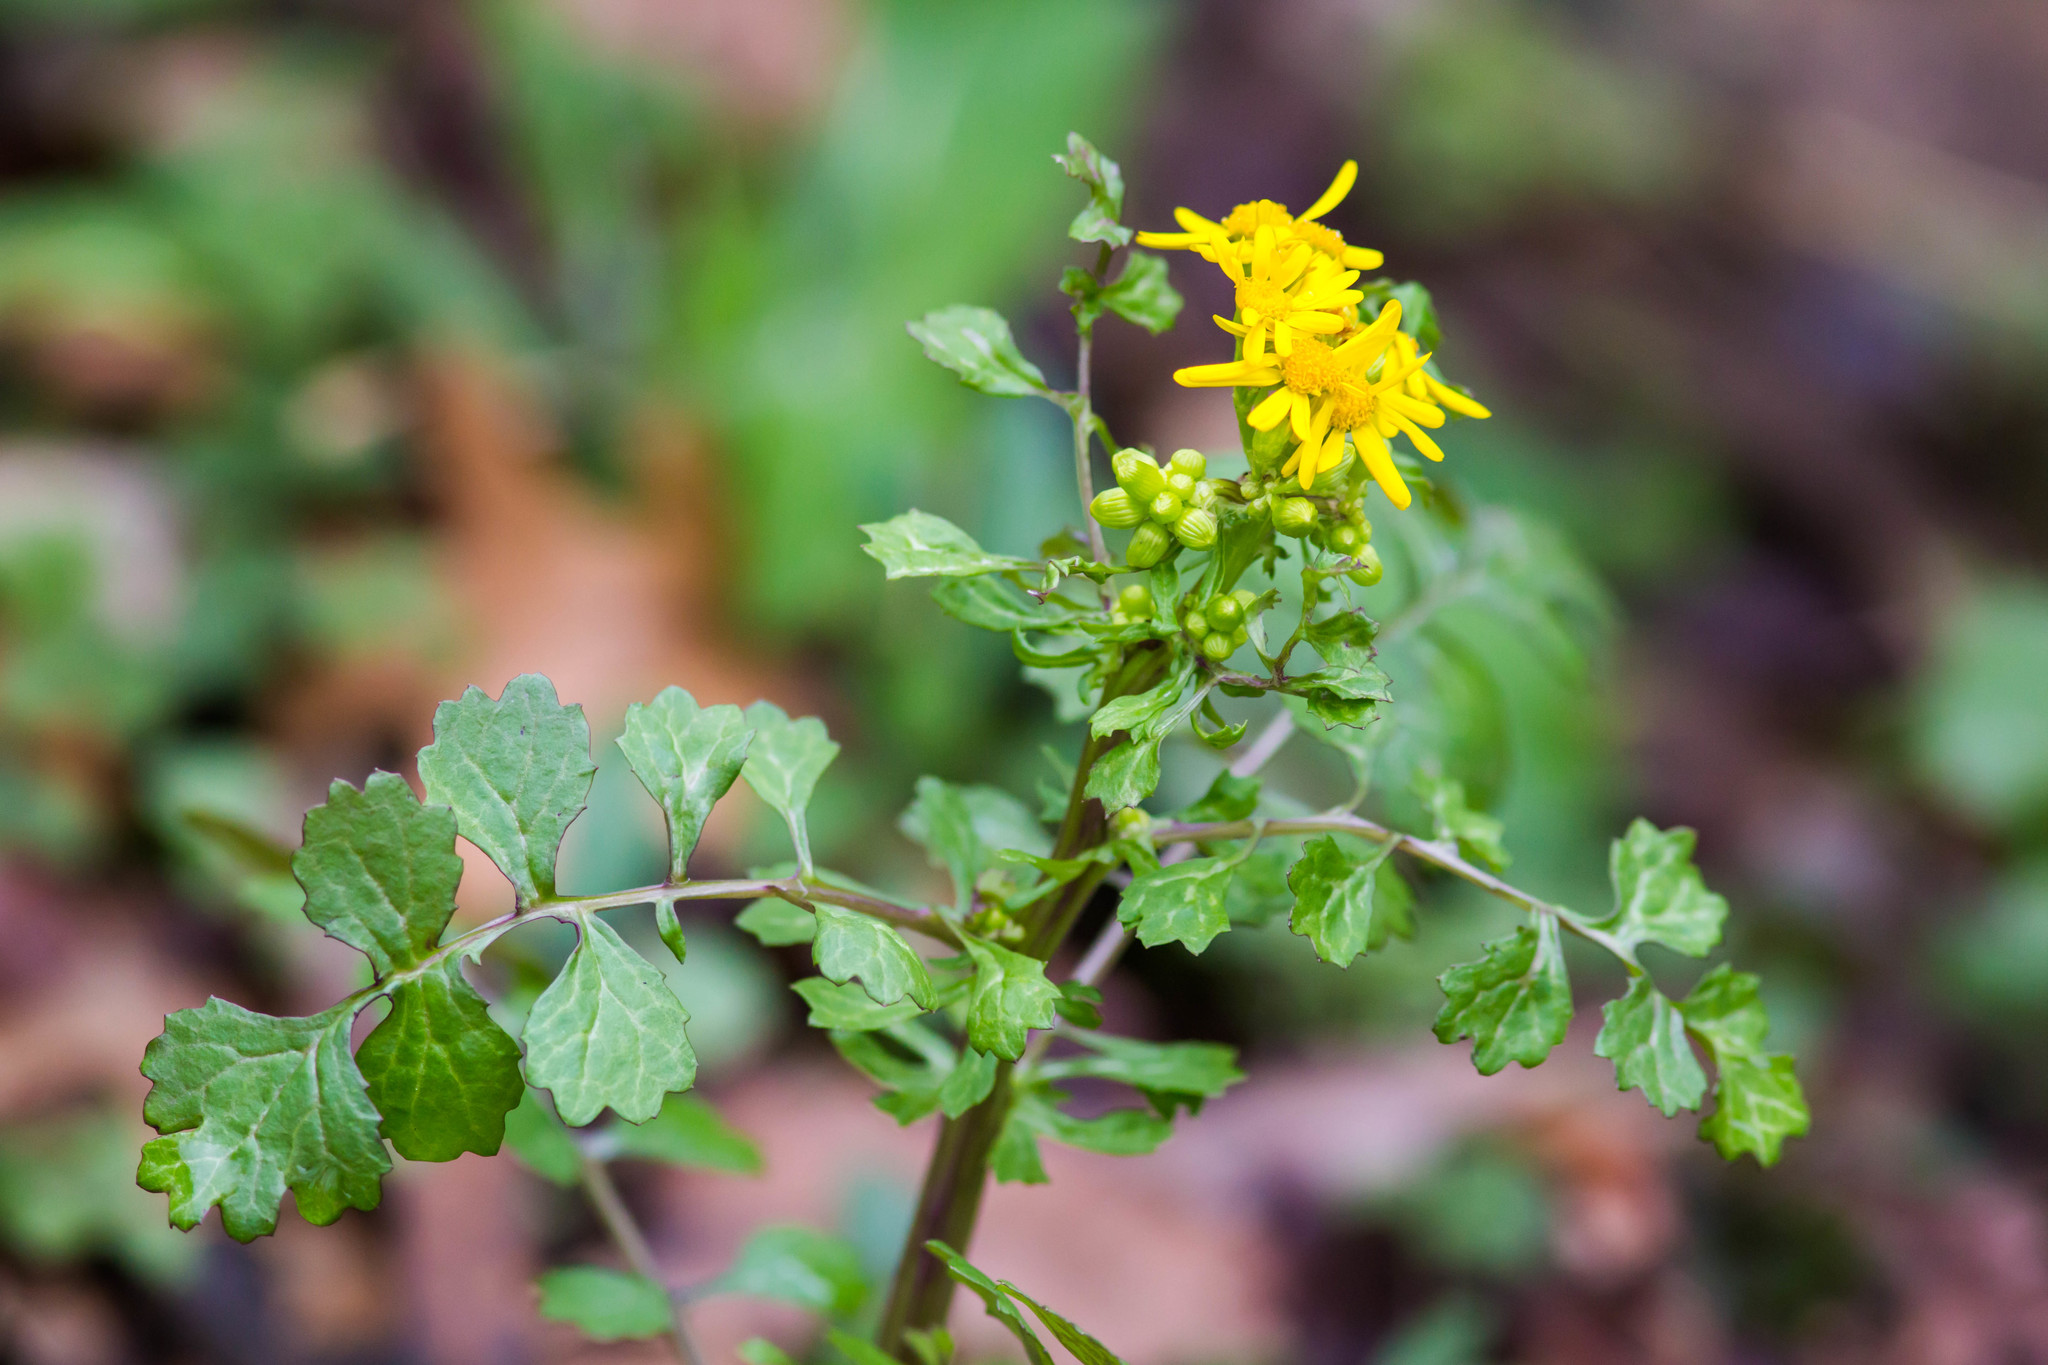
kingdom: Plantae
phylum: Tracheophyta
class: Magnoliopsida
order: Asterales
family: Asteraceae
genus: Packera
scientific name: Packera glabella
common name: Butterweed
